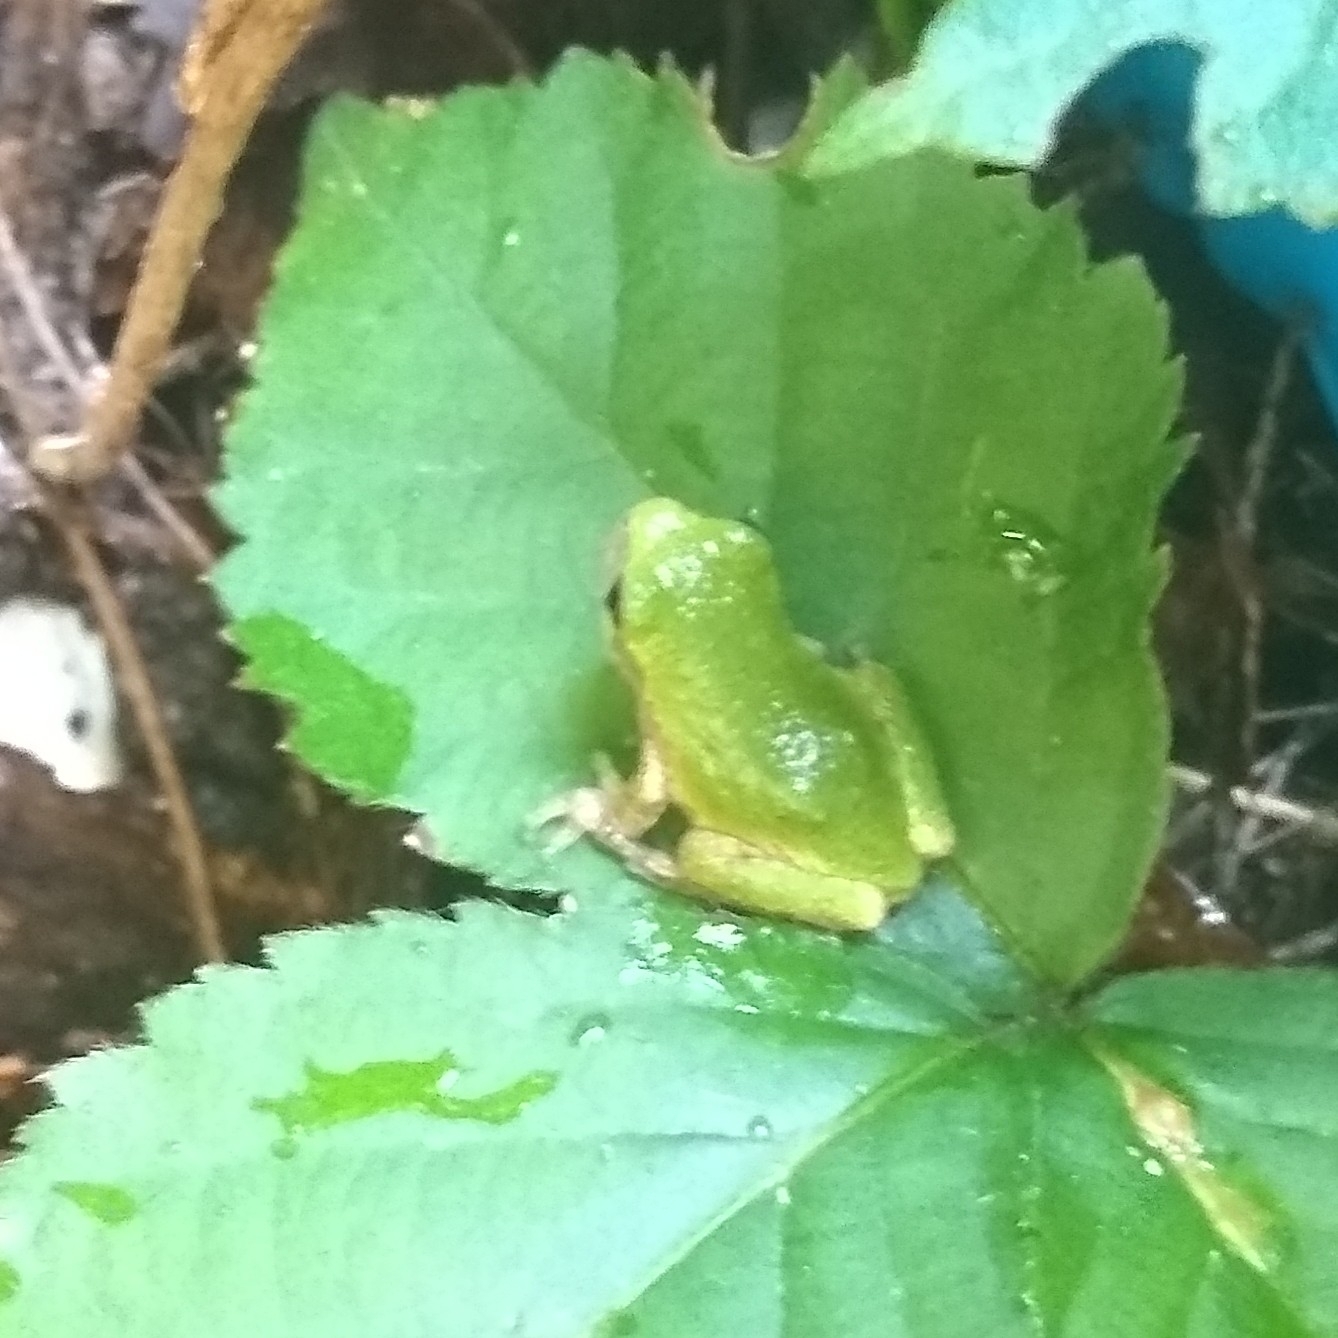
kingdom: Animalia
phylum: Chordata
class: Amphibia
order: Anura
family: Hylidae
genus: Dryophytes
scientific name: Dryophytes versicolor
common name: Gray treefrog
